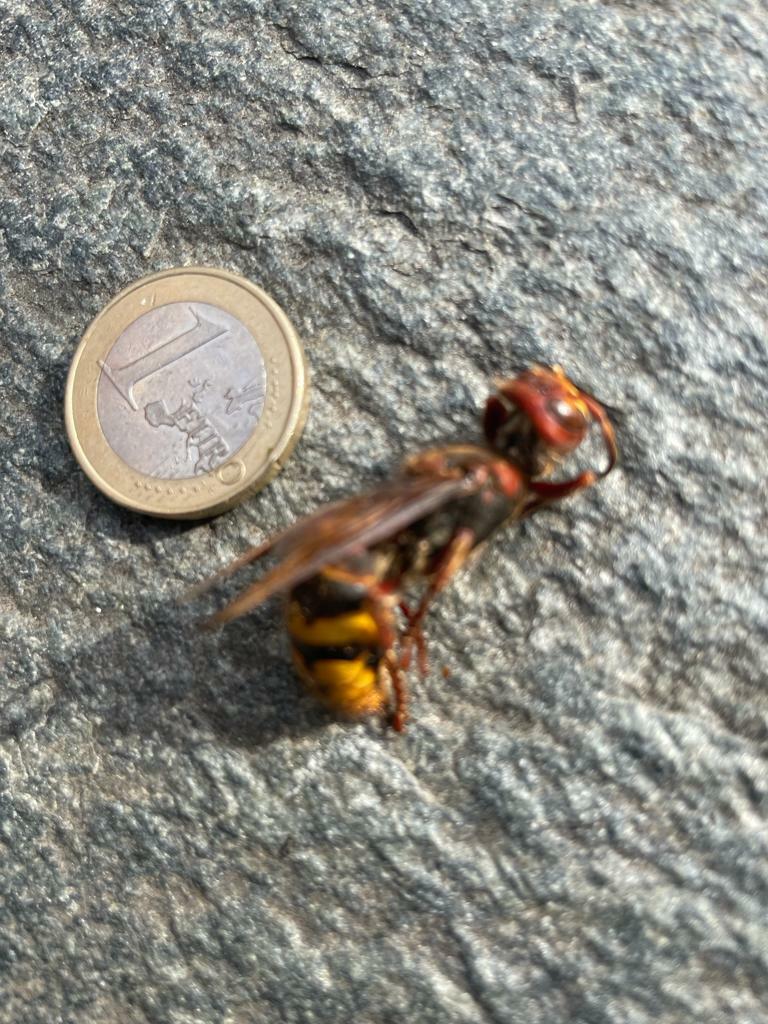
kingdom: Animalia
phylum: Arthropoda
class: Insecta
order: Hymenoptera
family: Vespidae
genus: Vespa
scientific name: Vespa crabro
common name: Hornet
